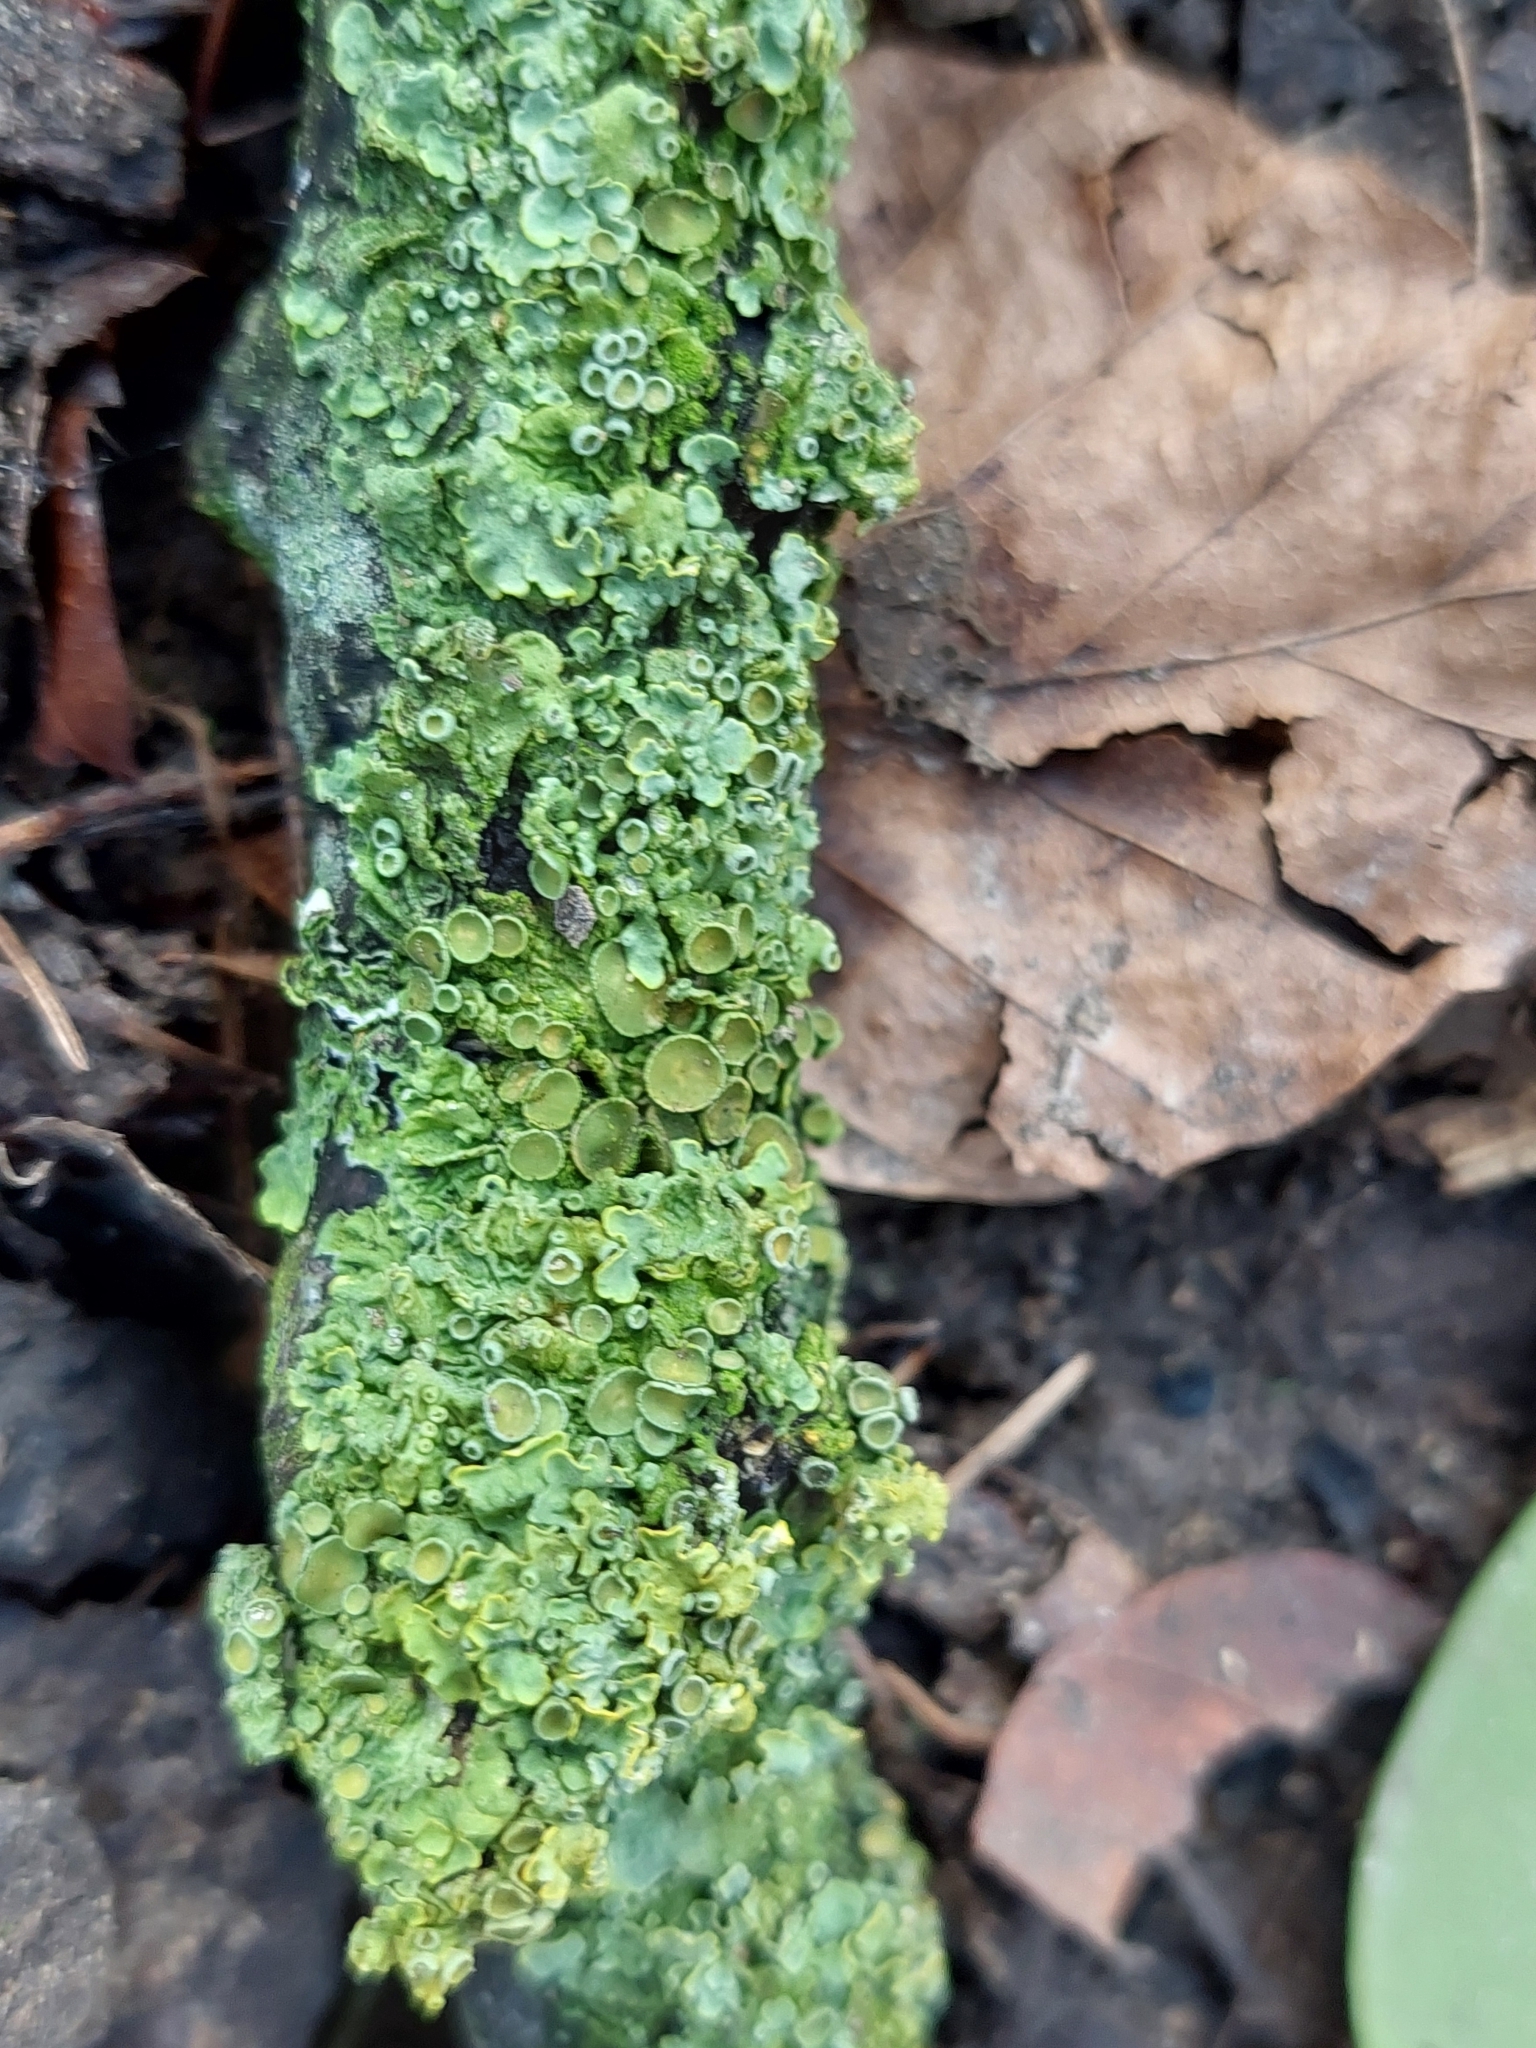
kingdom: Fungi
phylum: Ascomycota
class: Lecanoromycetes
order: Teloschistales
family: Teloschistaceae
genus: Xanthoria
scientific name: Xanthoria parietina
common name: Common orange lichen
